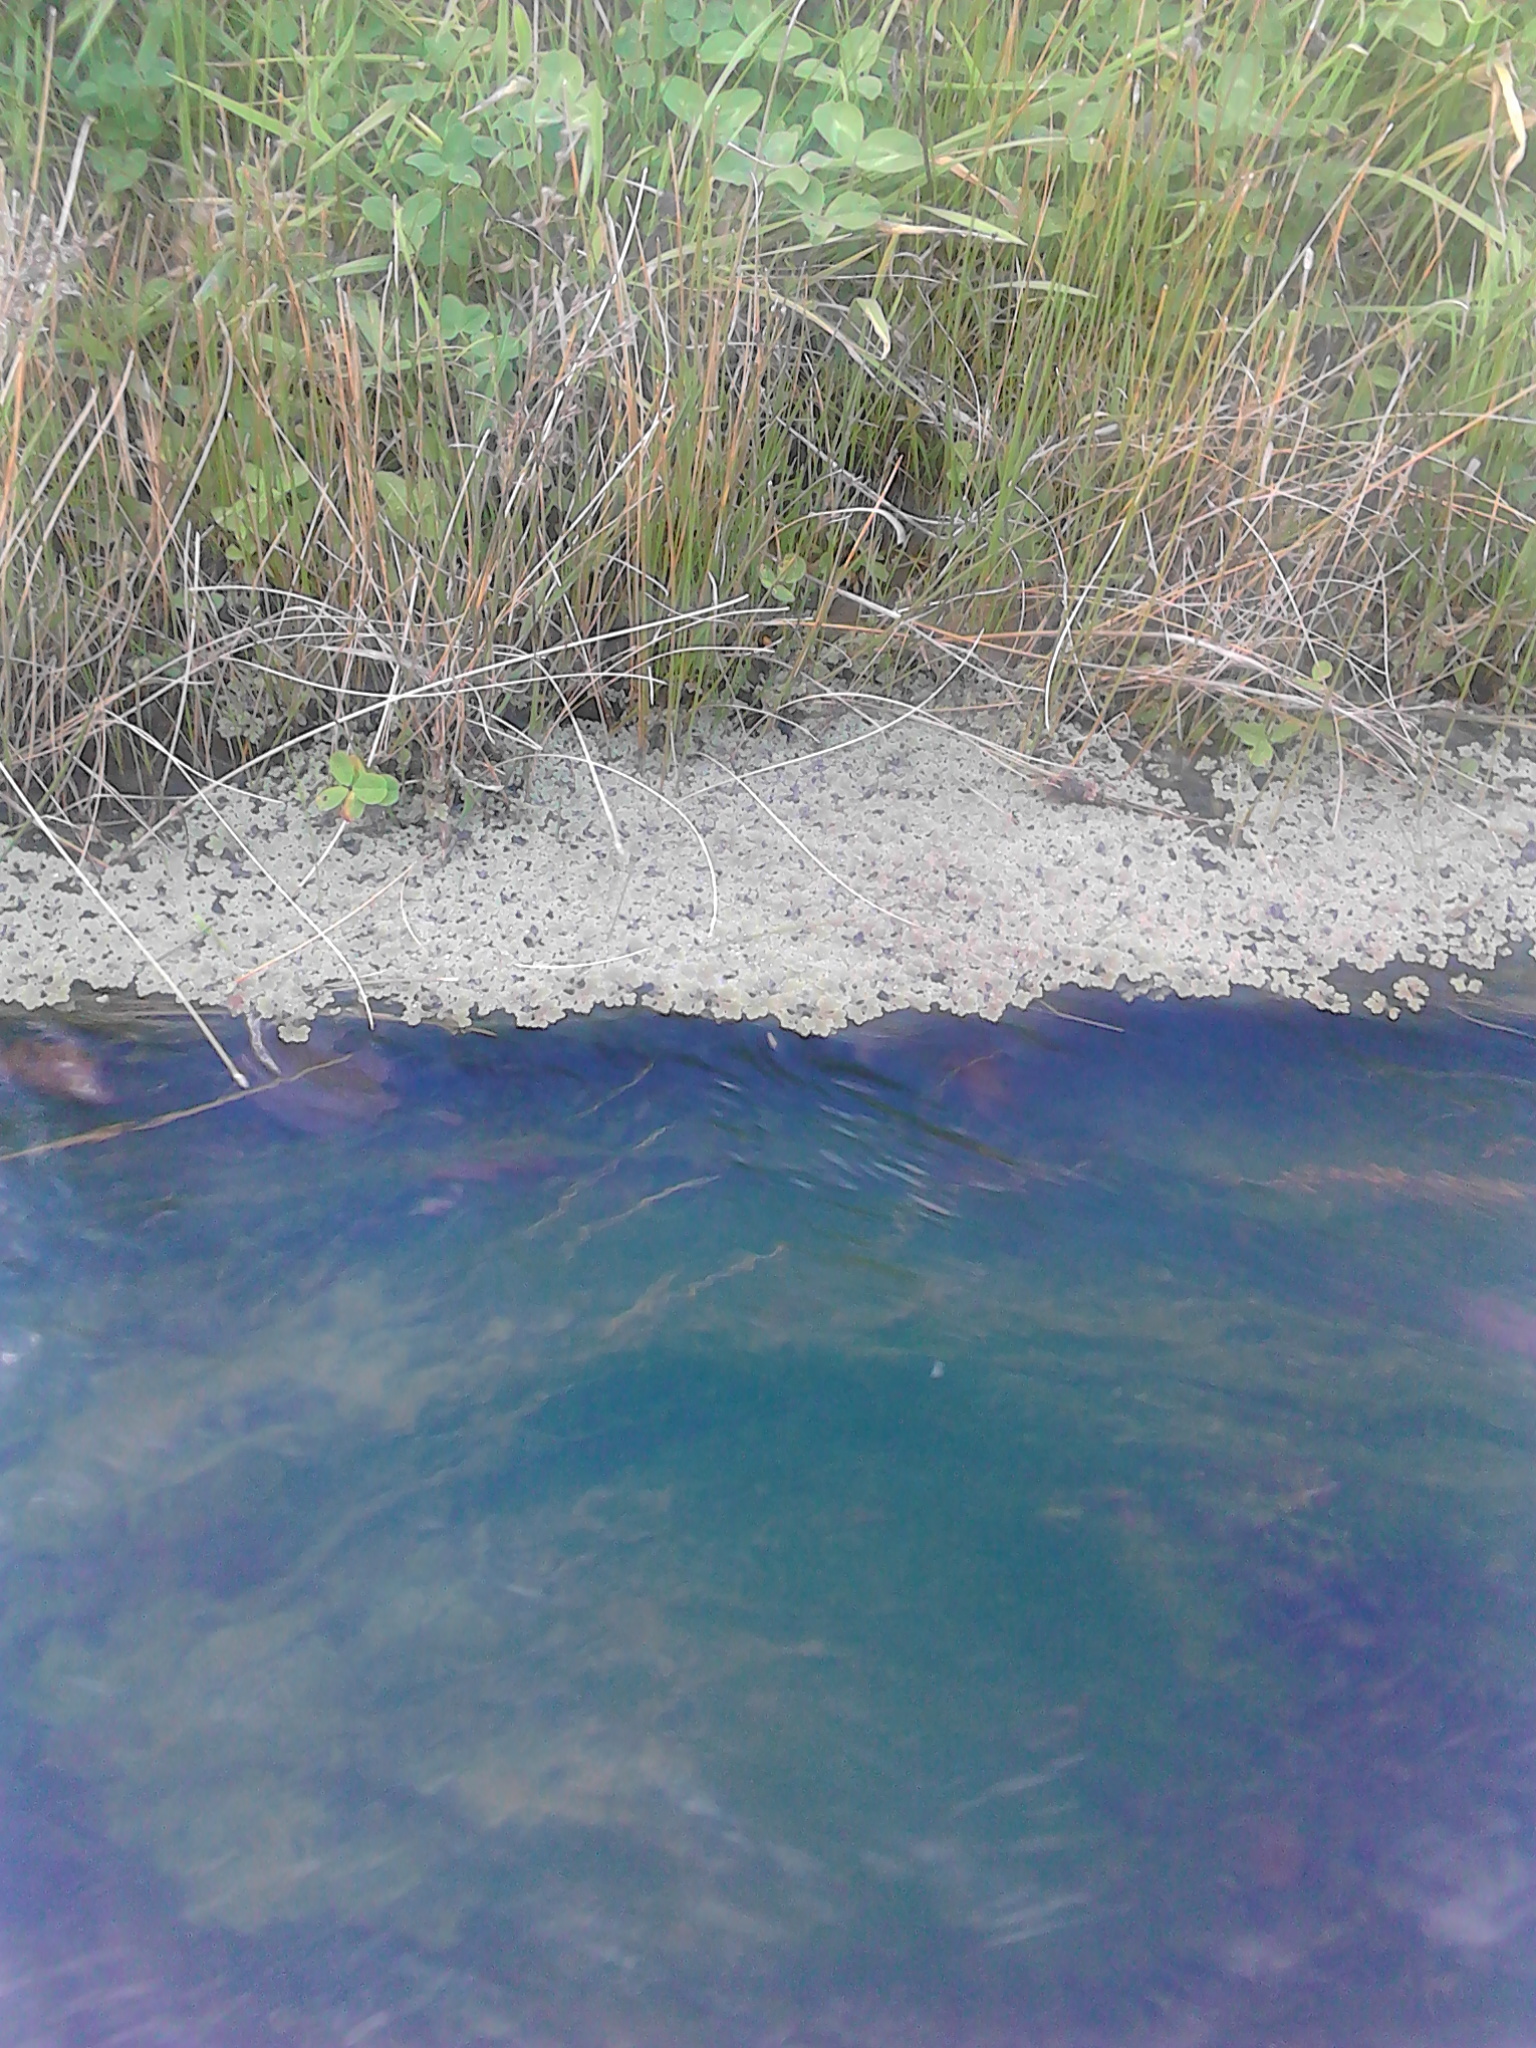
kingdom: Plantae
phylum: Tracheophyta
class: Polypodiopsida
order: Salviniales
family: Salviniaceae
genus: Azolla
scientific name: Azolla rubra
